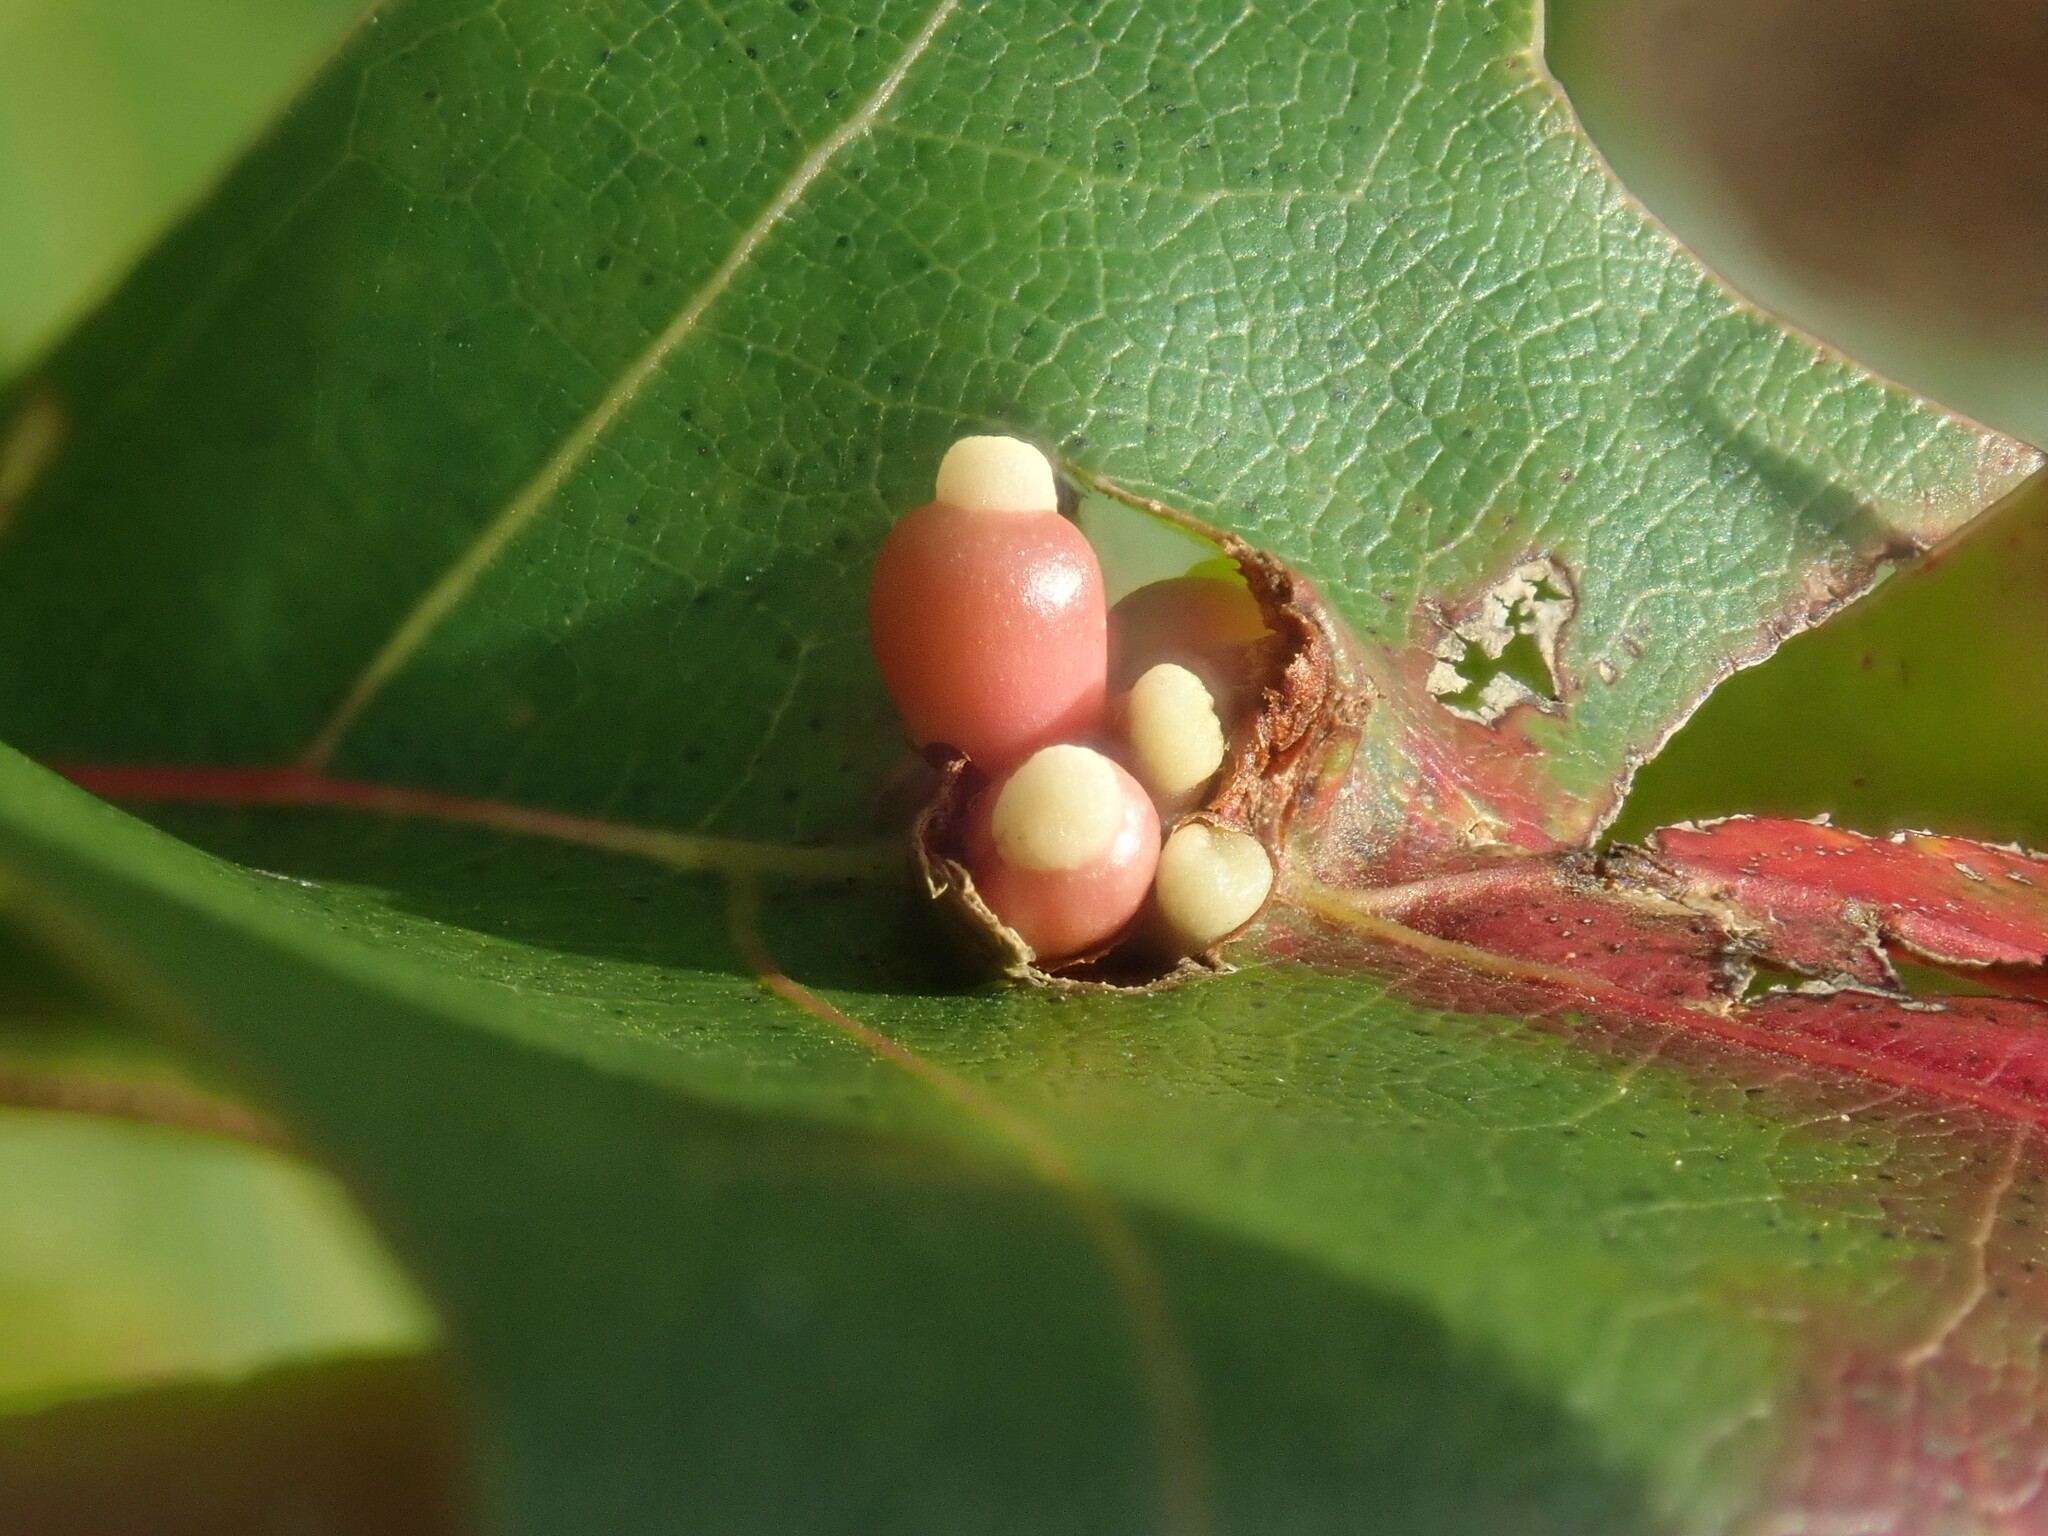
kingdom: Animalia
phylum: Arthropoda
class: Insecta
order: Hymenoptera
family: Cynipidae
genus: Kokkocynips
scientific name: Kokkocynips decidua
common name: Oak wheat gall
